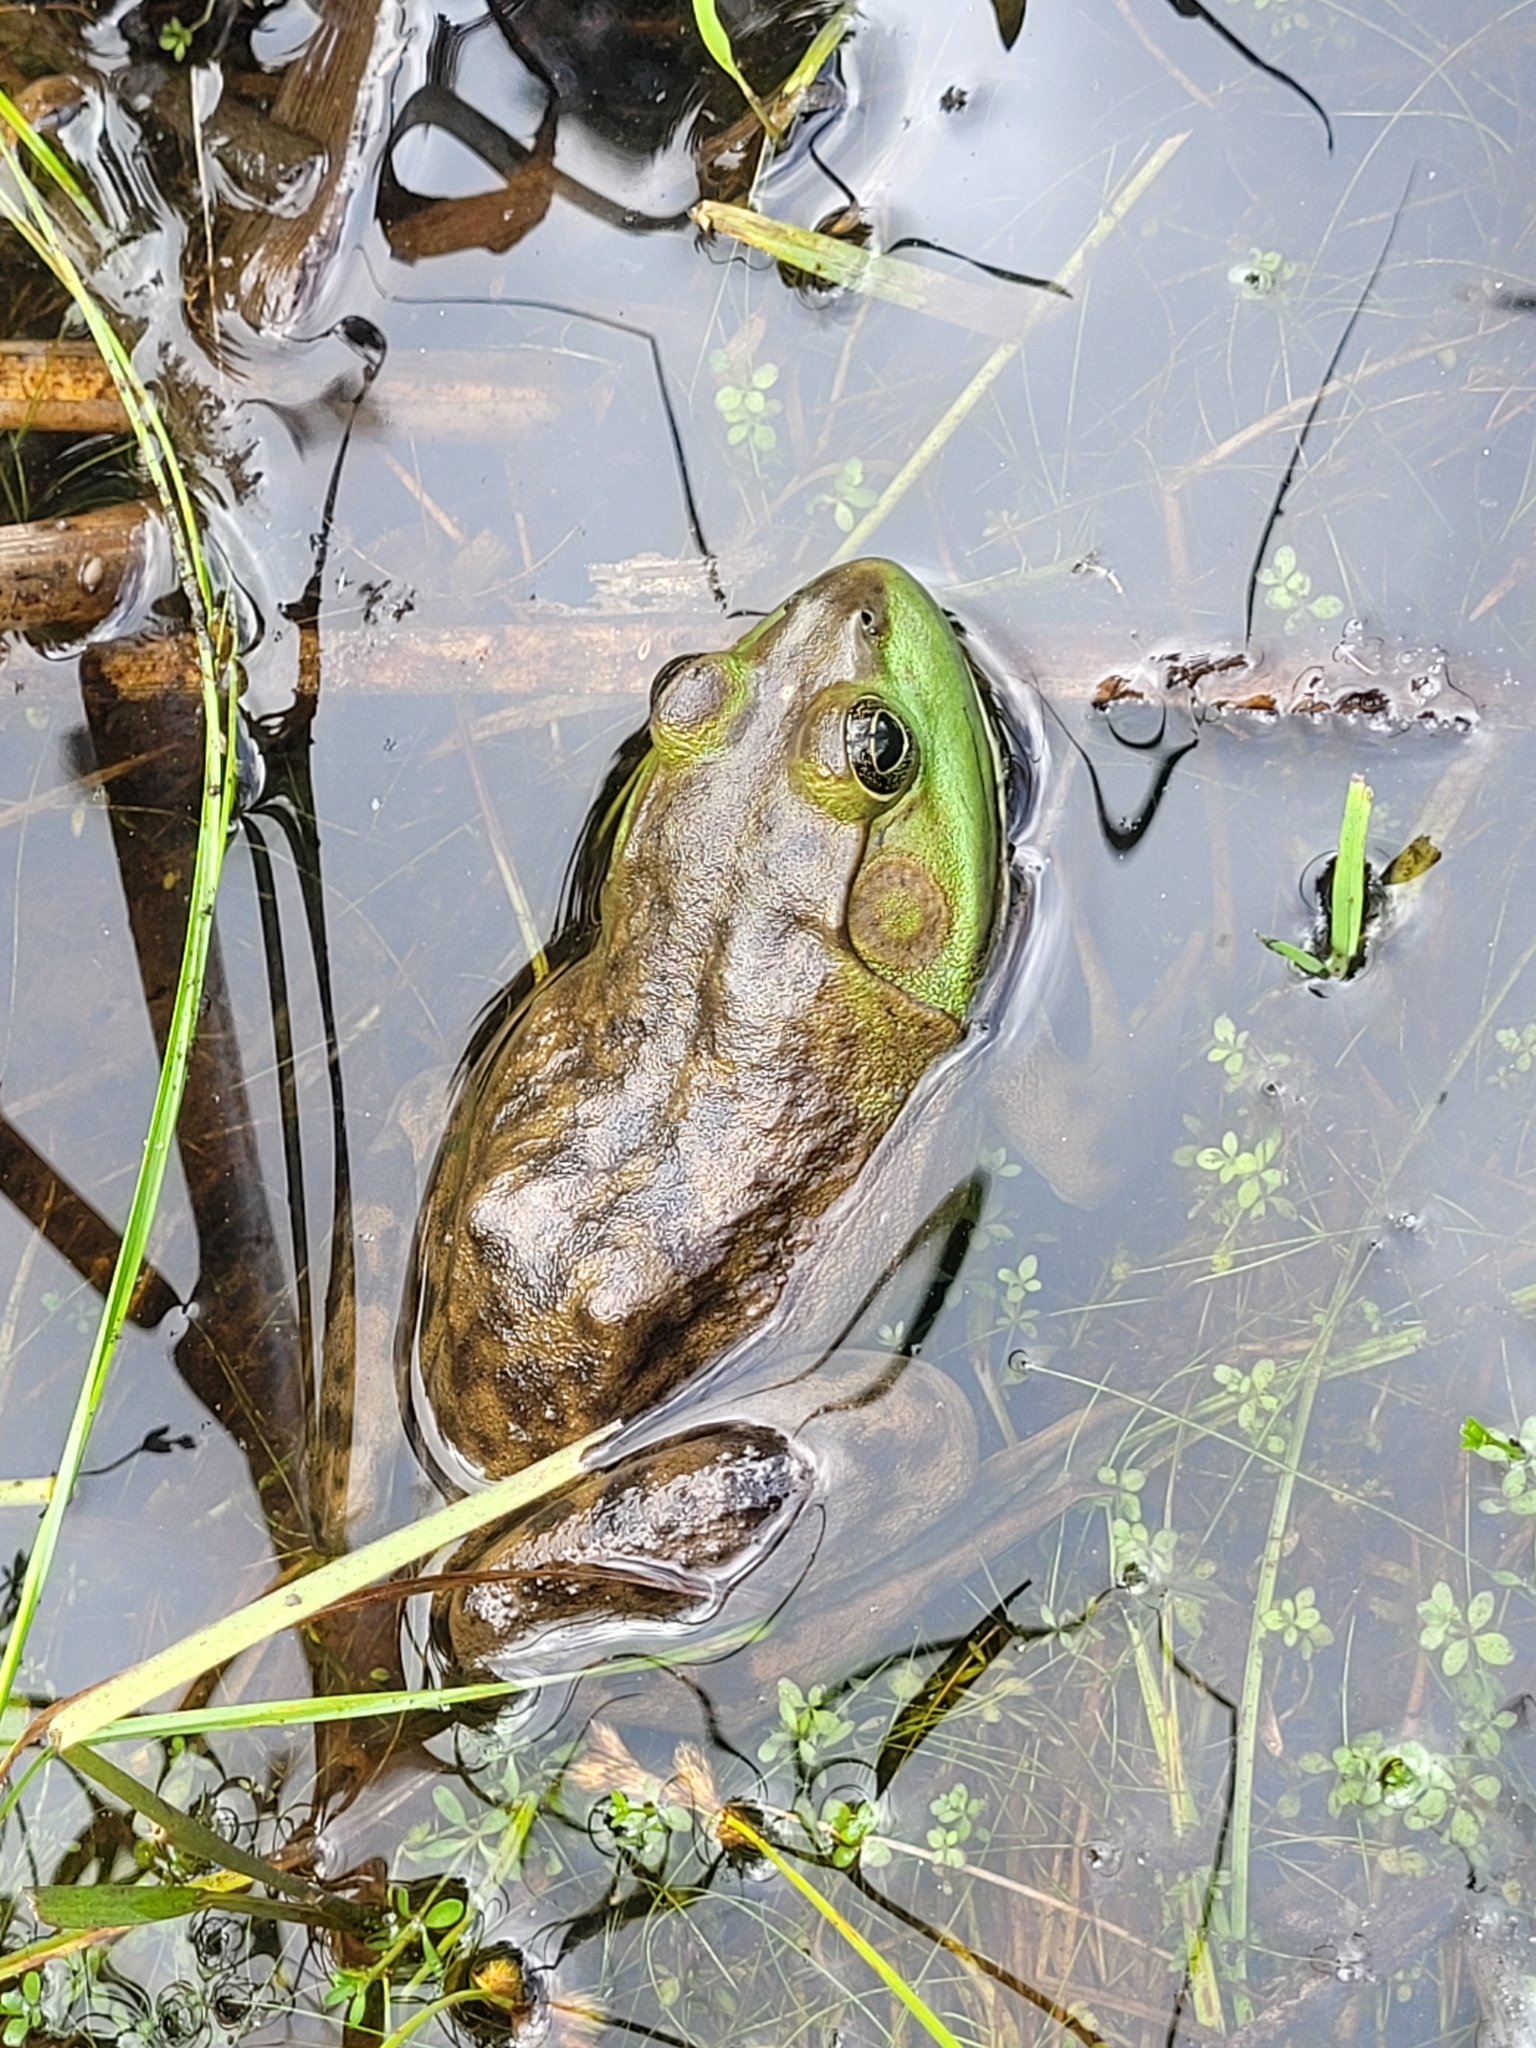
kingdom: Animalia
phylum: Chordata
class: Amphibia
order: Anura
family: Ranidae
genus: Lithobates
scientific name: Lithobates catesbeianus
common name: American bullfrog
